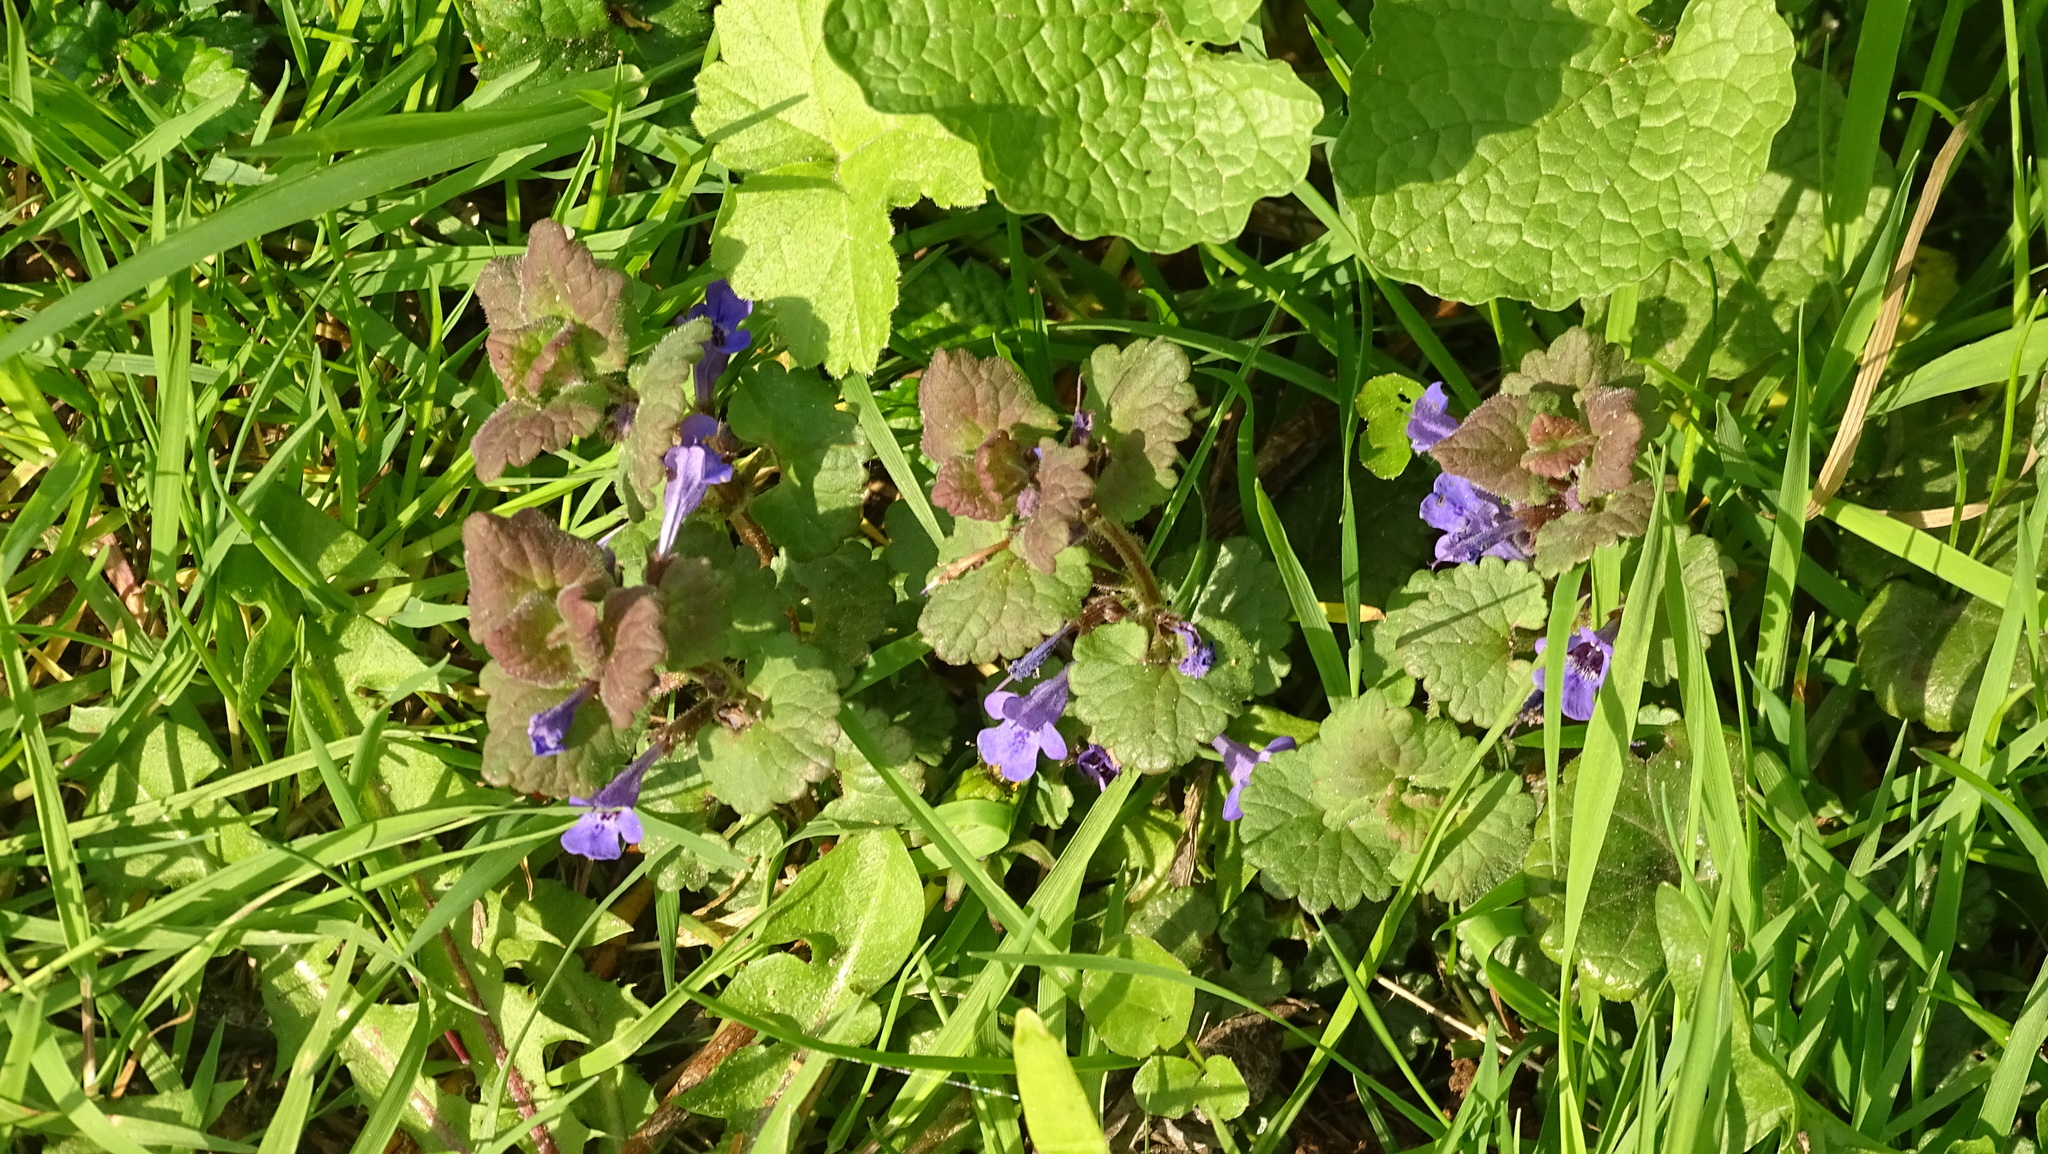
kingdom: Plantae
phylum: Tracheophyta
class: Magnoliopsida
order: Lamiales
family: Lamiaceae
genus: Glechoma
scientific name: Glechoma hederacea
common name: Ground ivy
